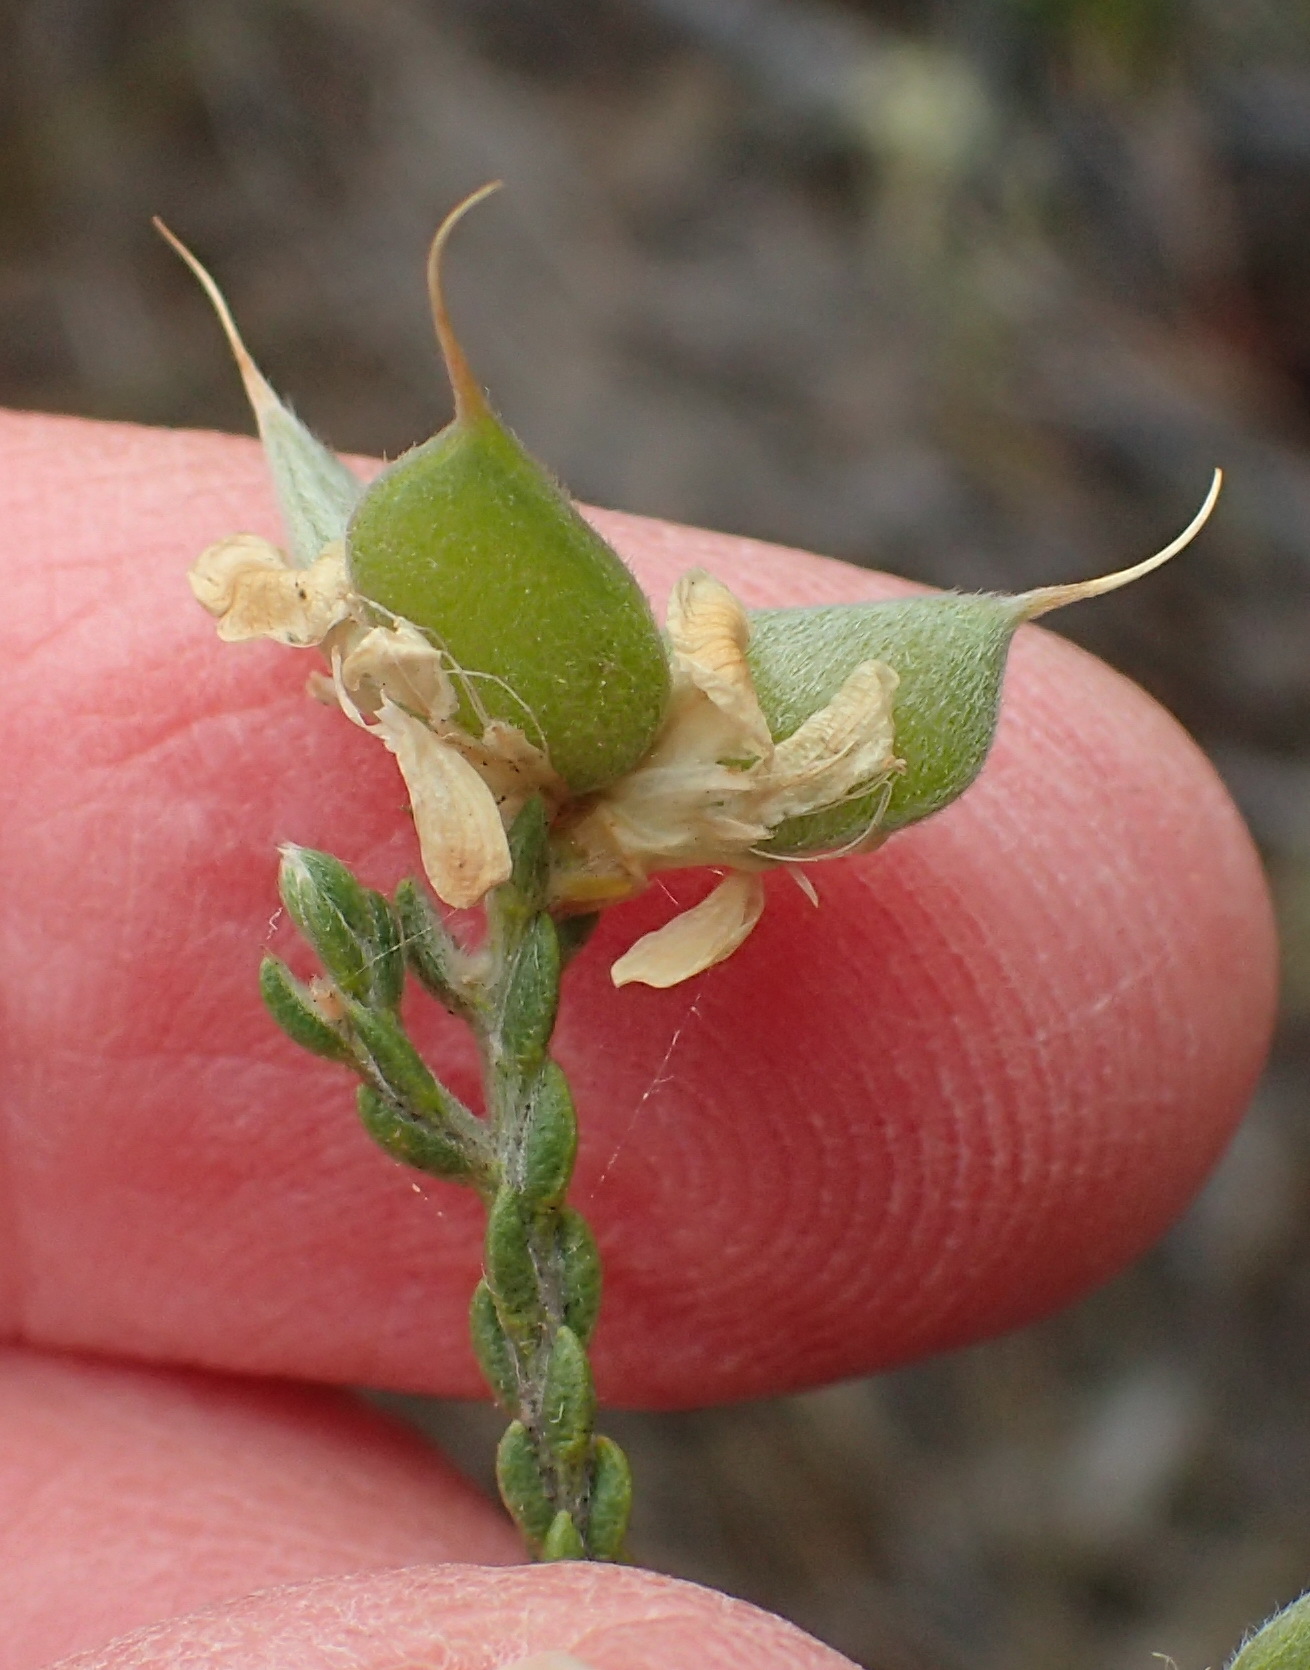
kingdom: Plantae
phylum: Tracheophyta
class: Magnoliopsida
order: Fabales
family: Fabaceae
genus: Amphithalea
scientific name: Amphithalea vlokii
